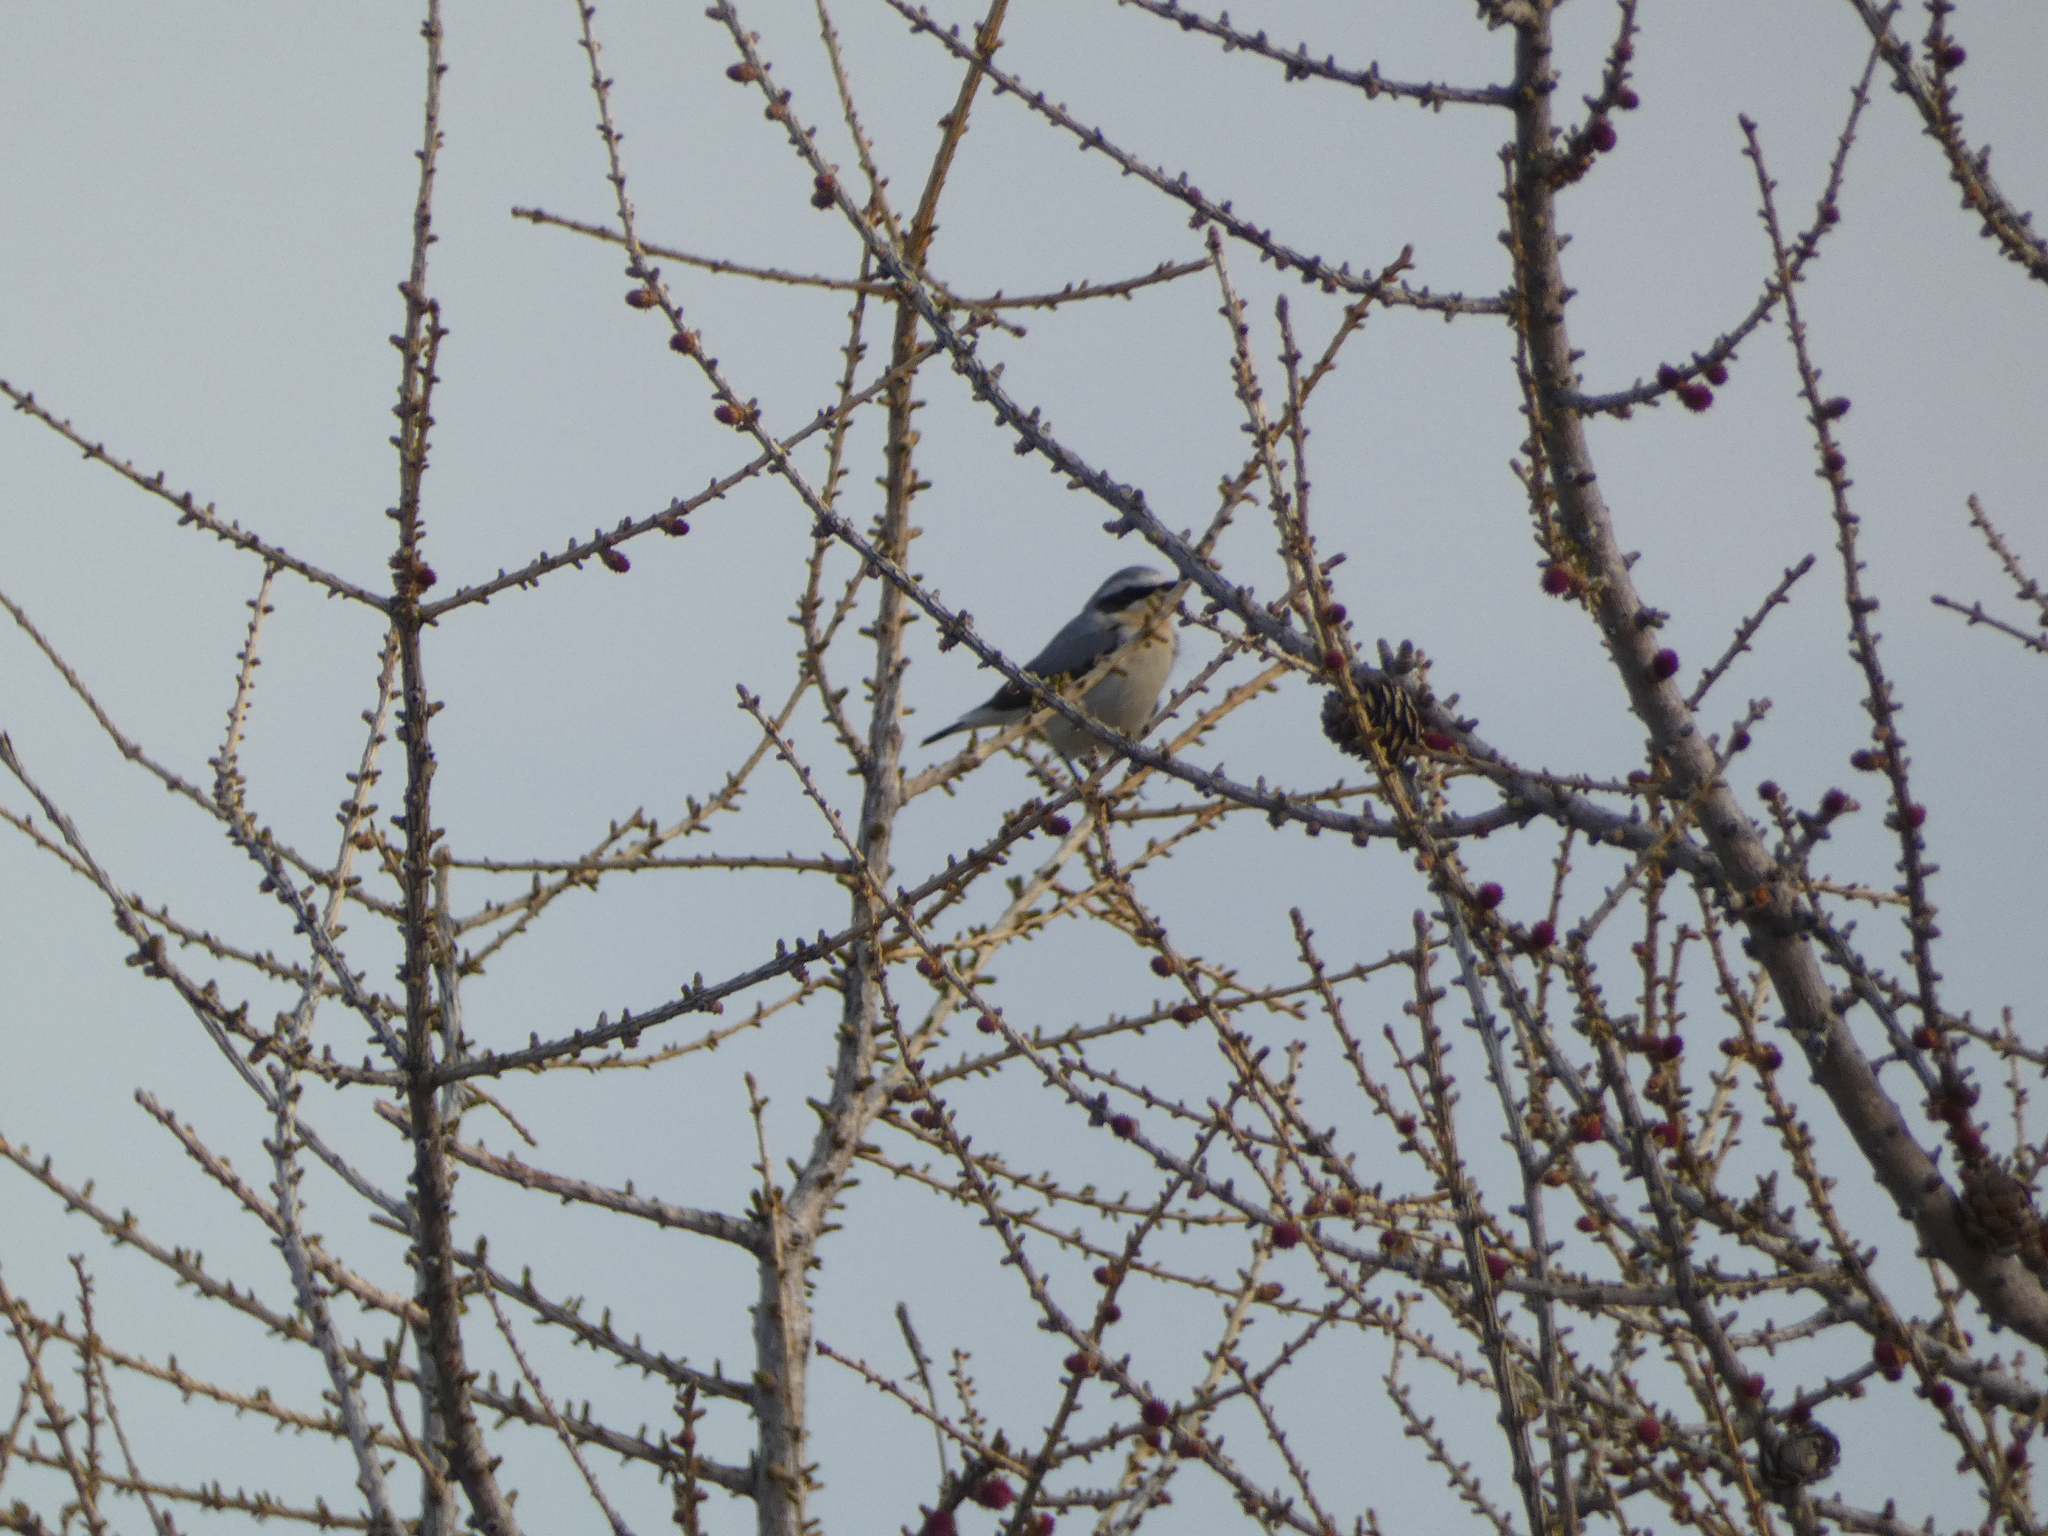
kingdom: Animalia
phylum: Chordata
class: Aves
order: Passeriformes
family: Muscicapidae
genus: Oenanthe
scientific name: Oenanthe oenanthe
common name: Northern wheatear
